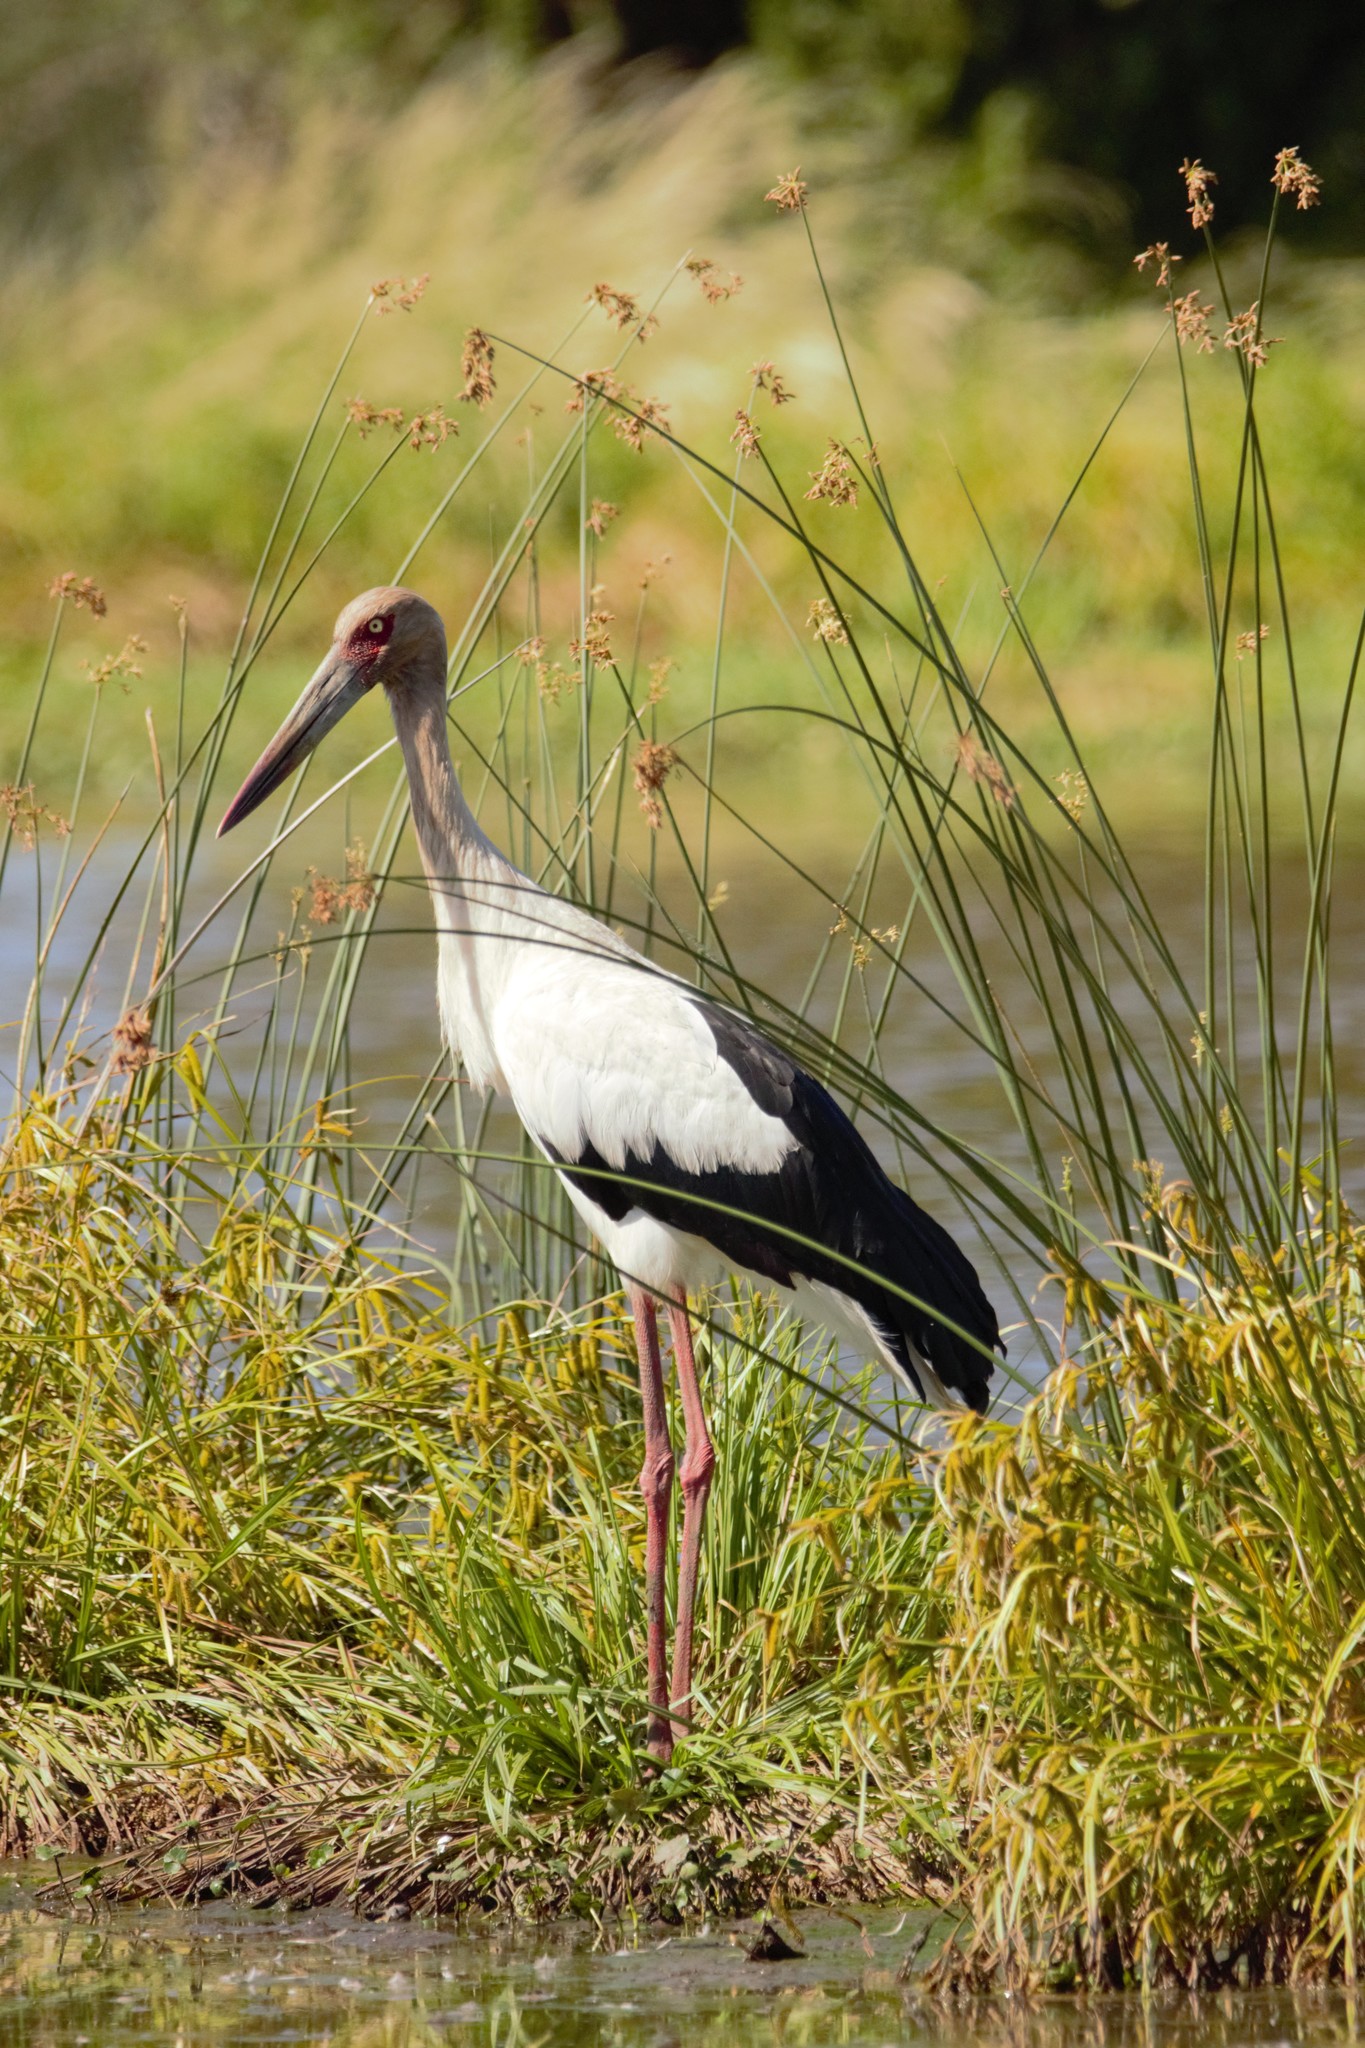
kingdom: Animalia
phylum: Chordata
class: Aves
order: Ciconiiformes
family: Ciconiidae
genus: Ciconia
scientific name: Ciconia maguari
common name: Maguari stork
